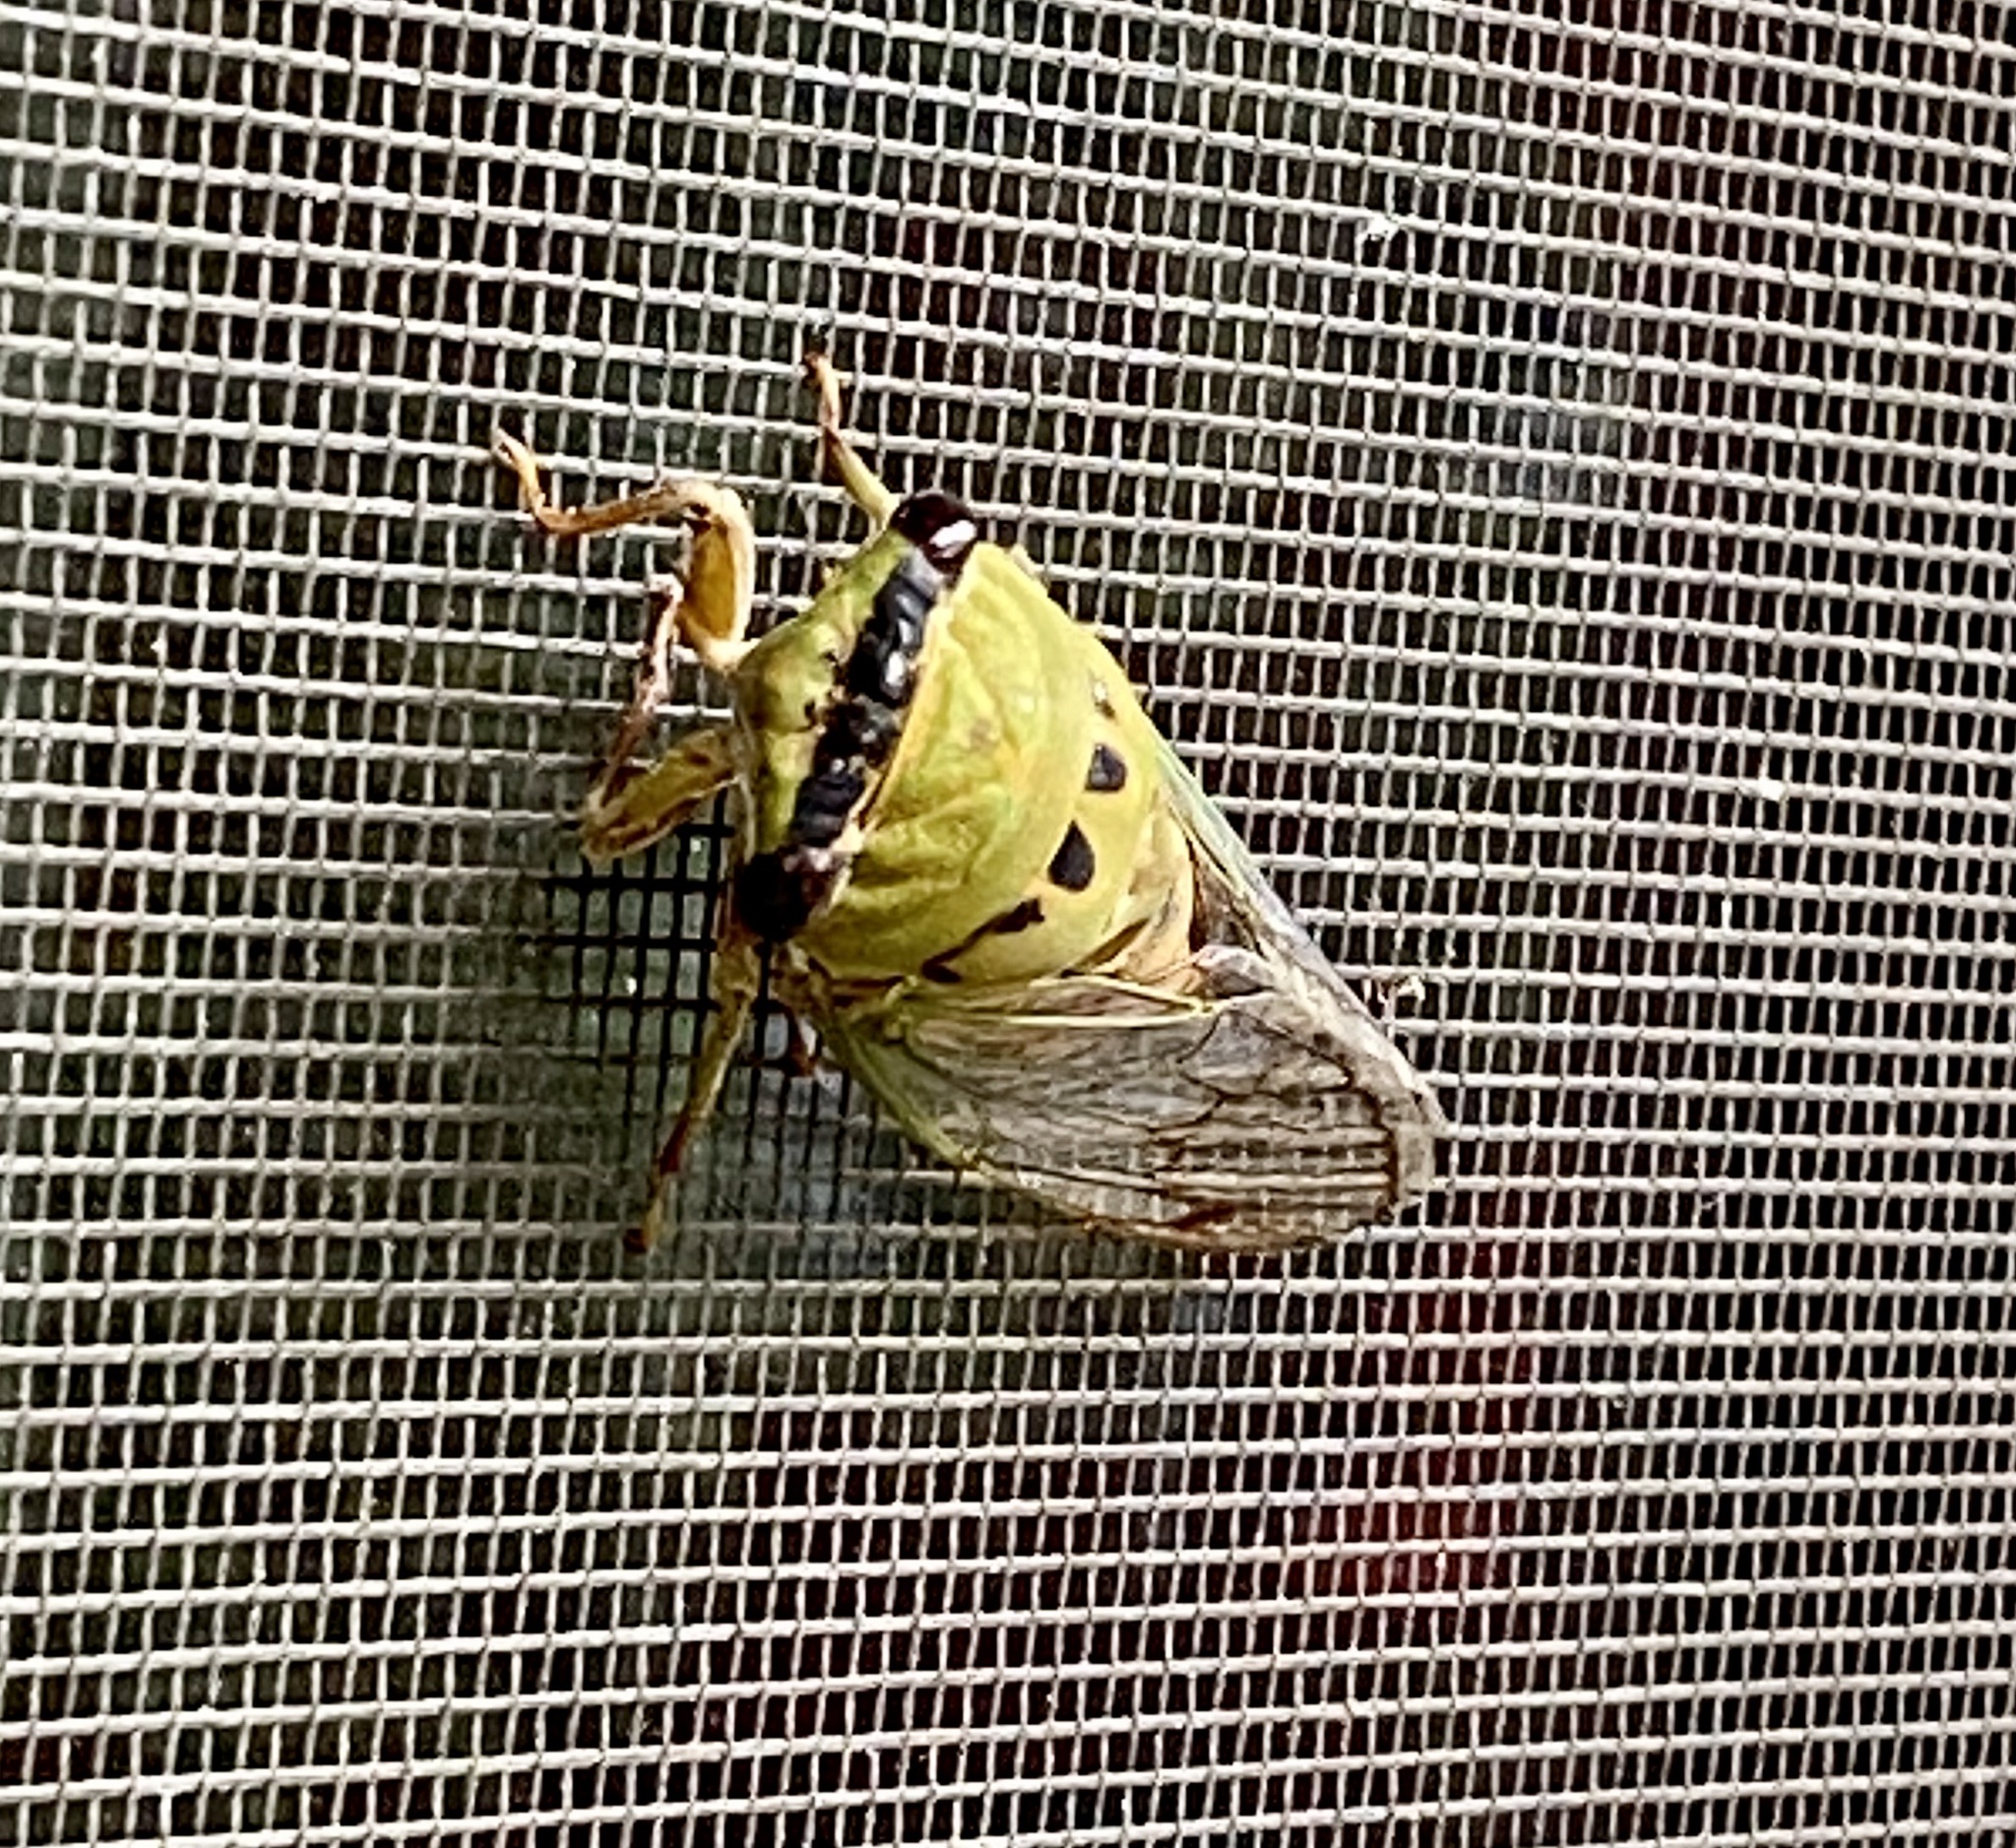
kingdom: Animalia
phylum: Arthropoda
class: Insecta
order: Hemiptera
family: Cicadidae
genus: Neotibicen
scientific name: Neotibicen superbus
